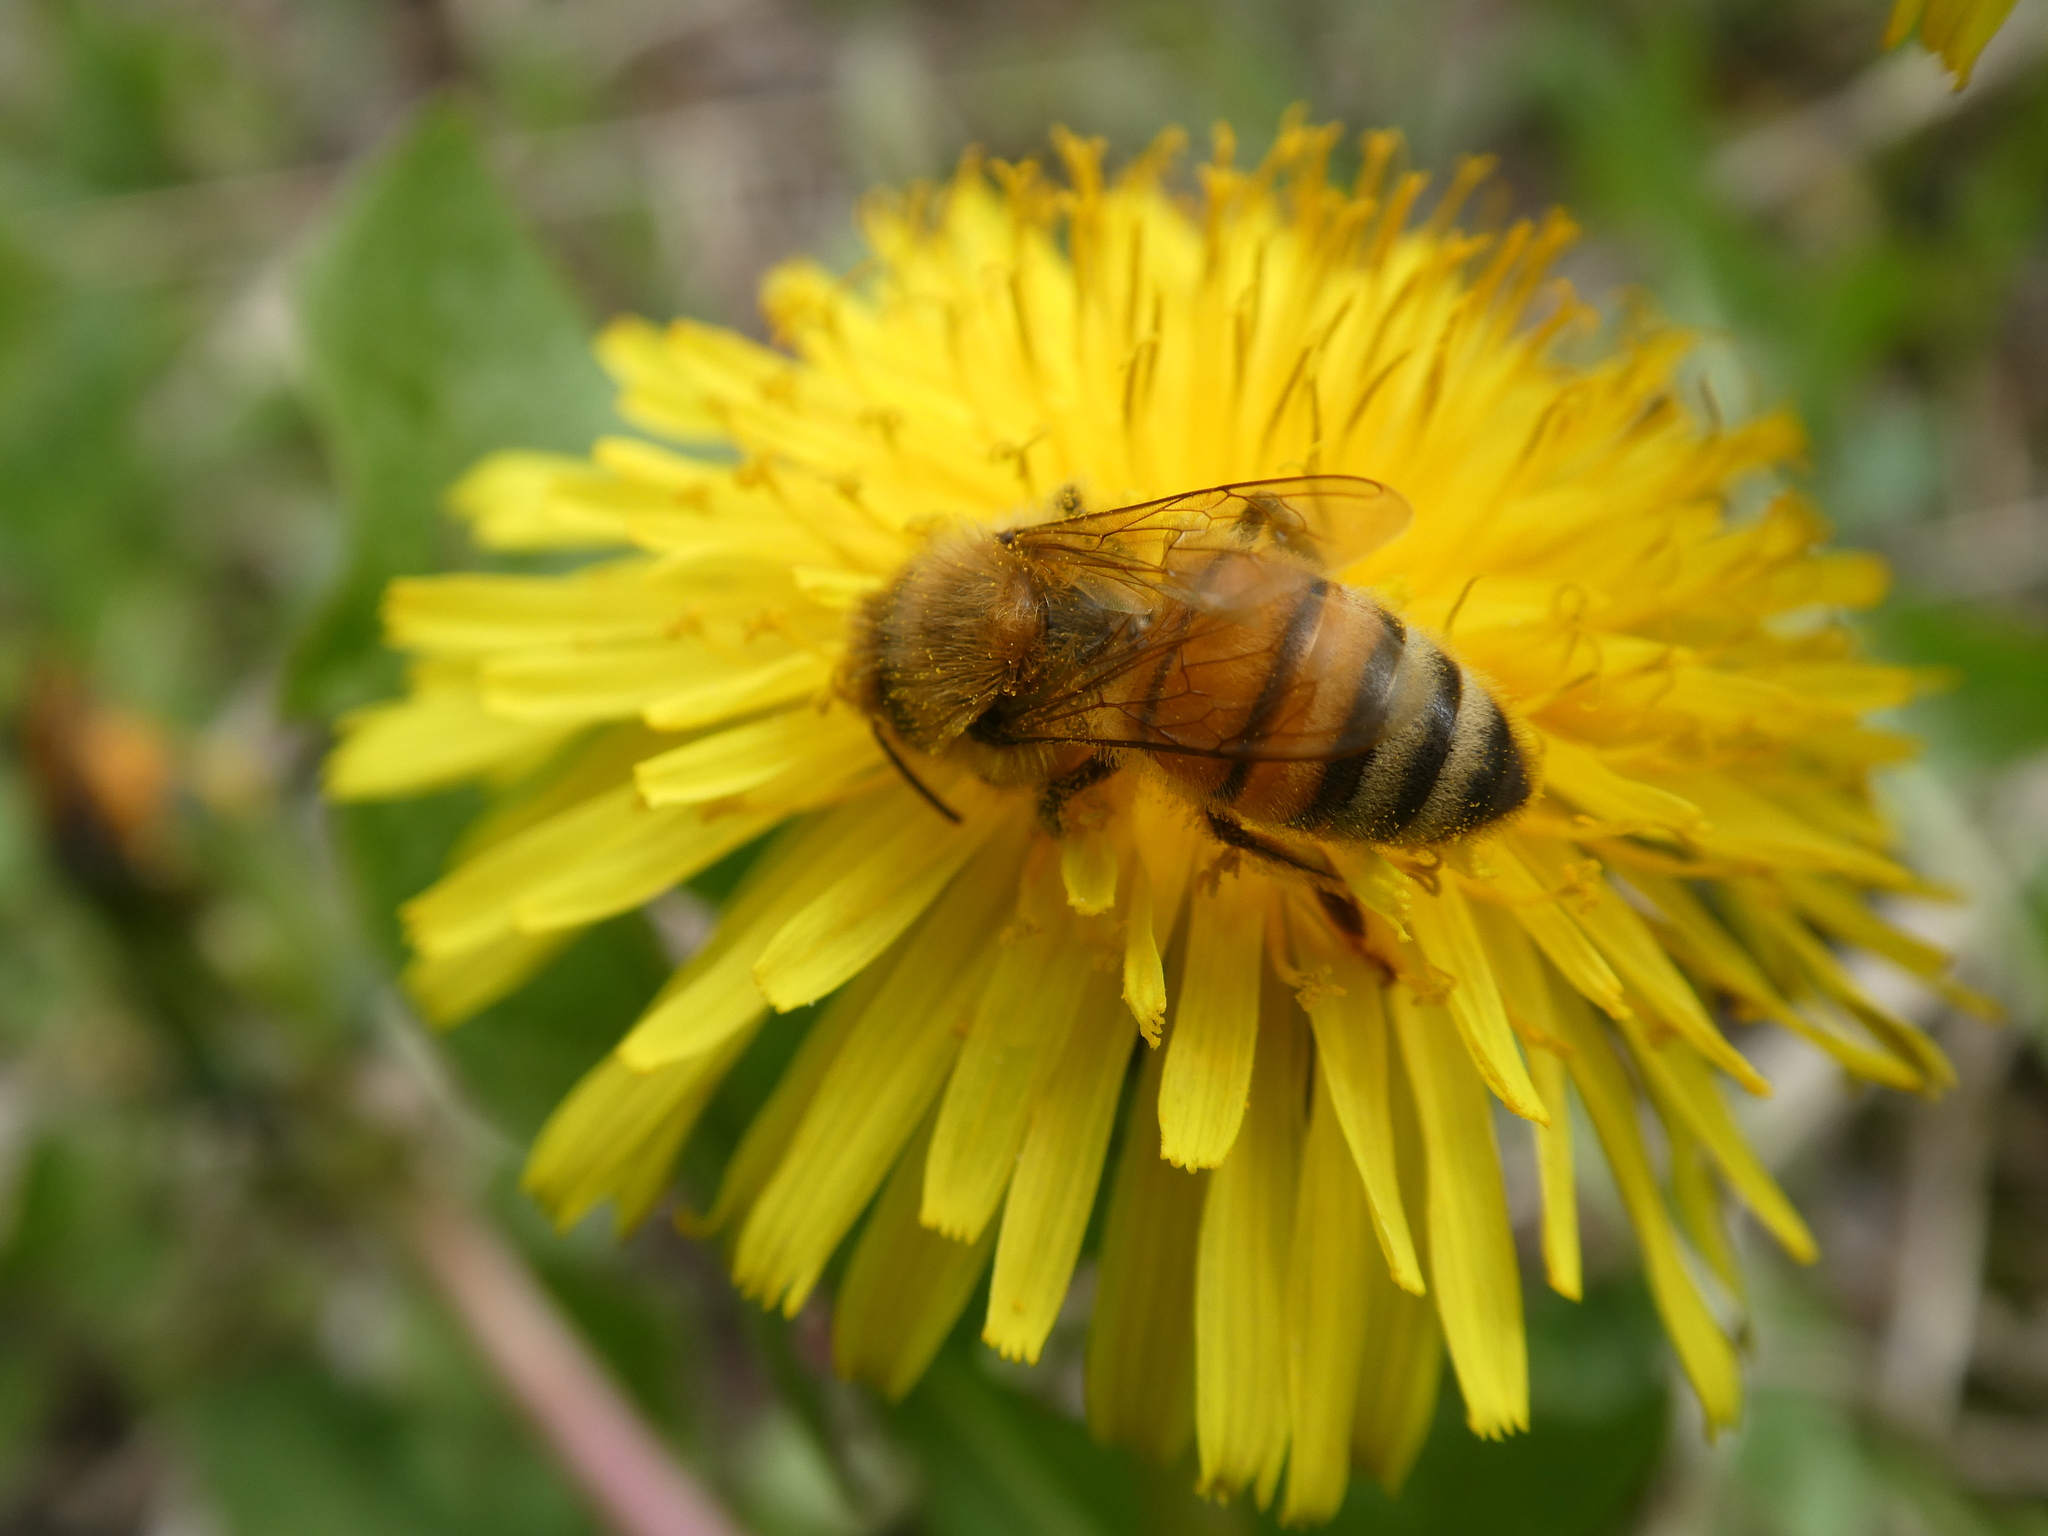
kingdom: Animalia
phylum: Arthropoda
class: Insecta
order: Hymenoptera
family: Apidae
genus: Apis
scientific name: Apis mellifera
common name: Honey bee
